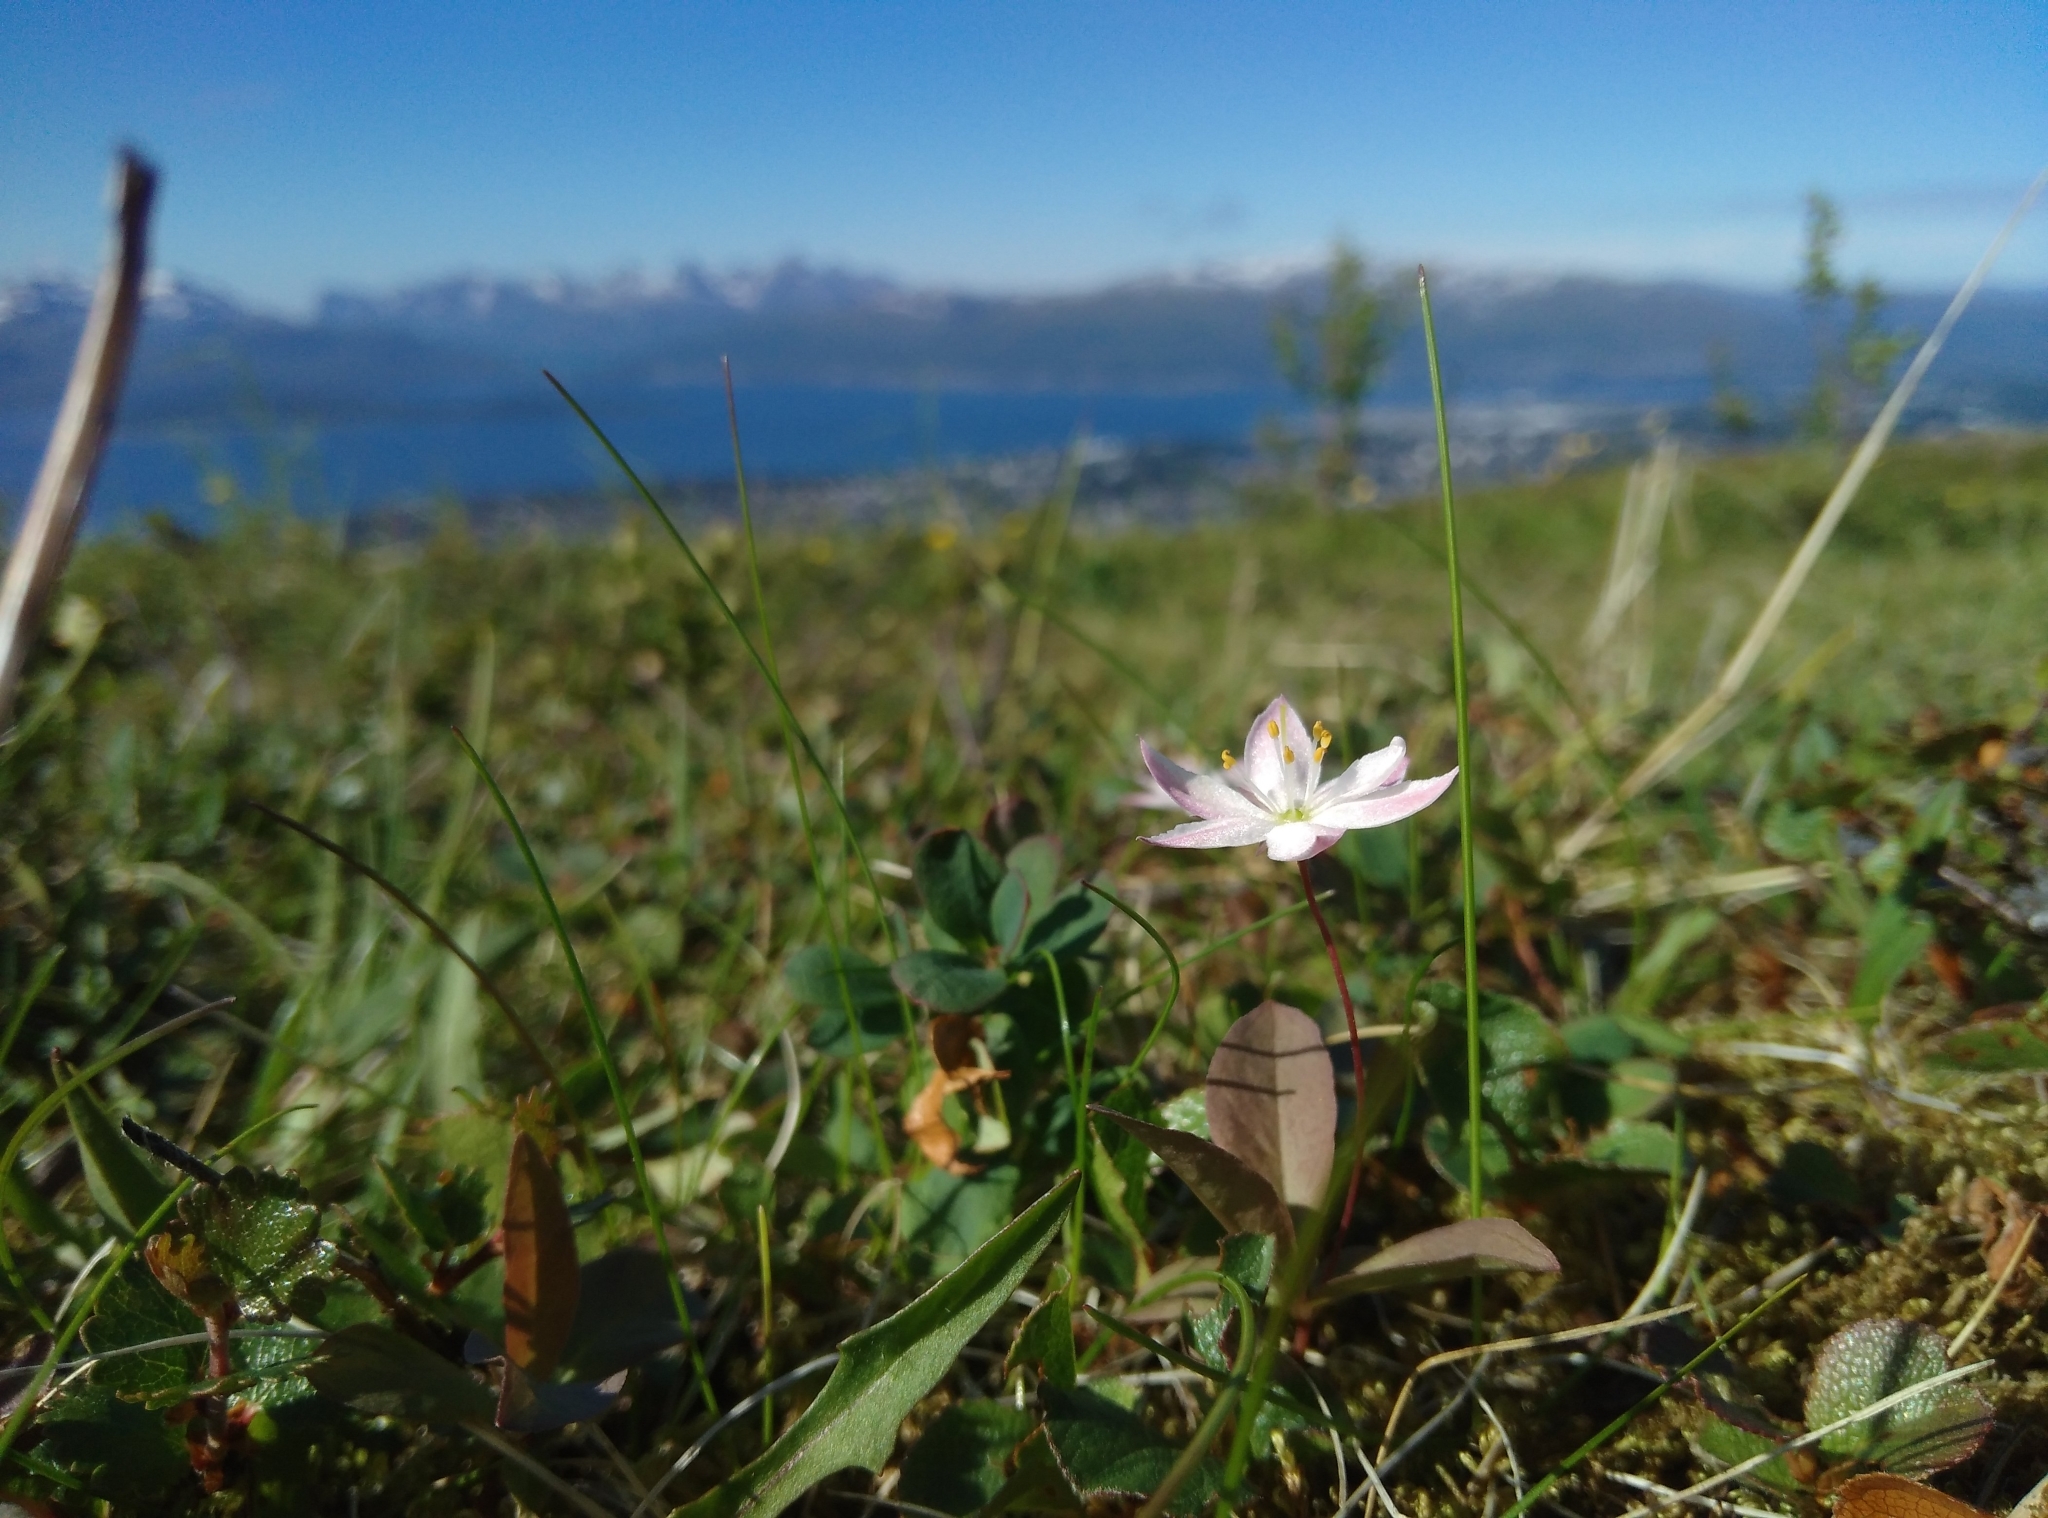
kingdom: Plantae
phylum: Tracheophyta
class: Magnoliopsida
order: Ericales
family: Primulaceae
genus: Lysimachia
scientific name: Lysimachia europaea
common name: Arctic starflower
